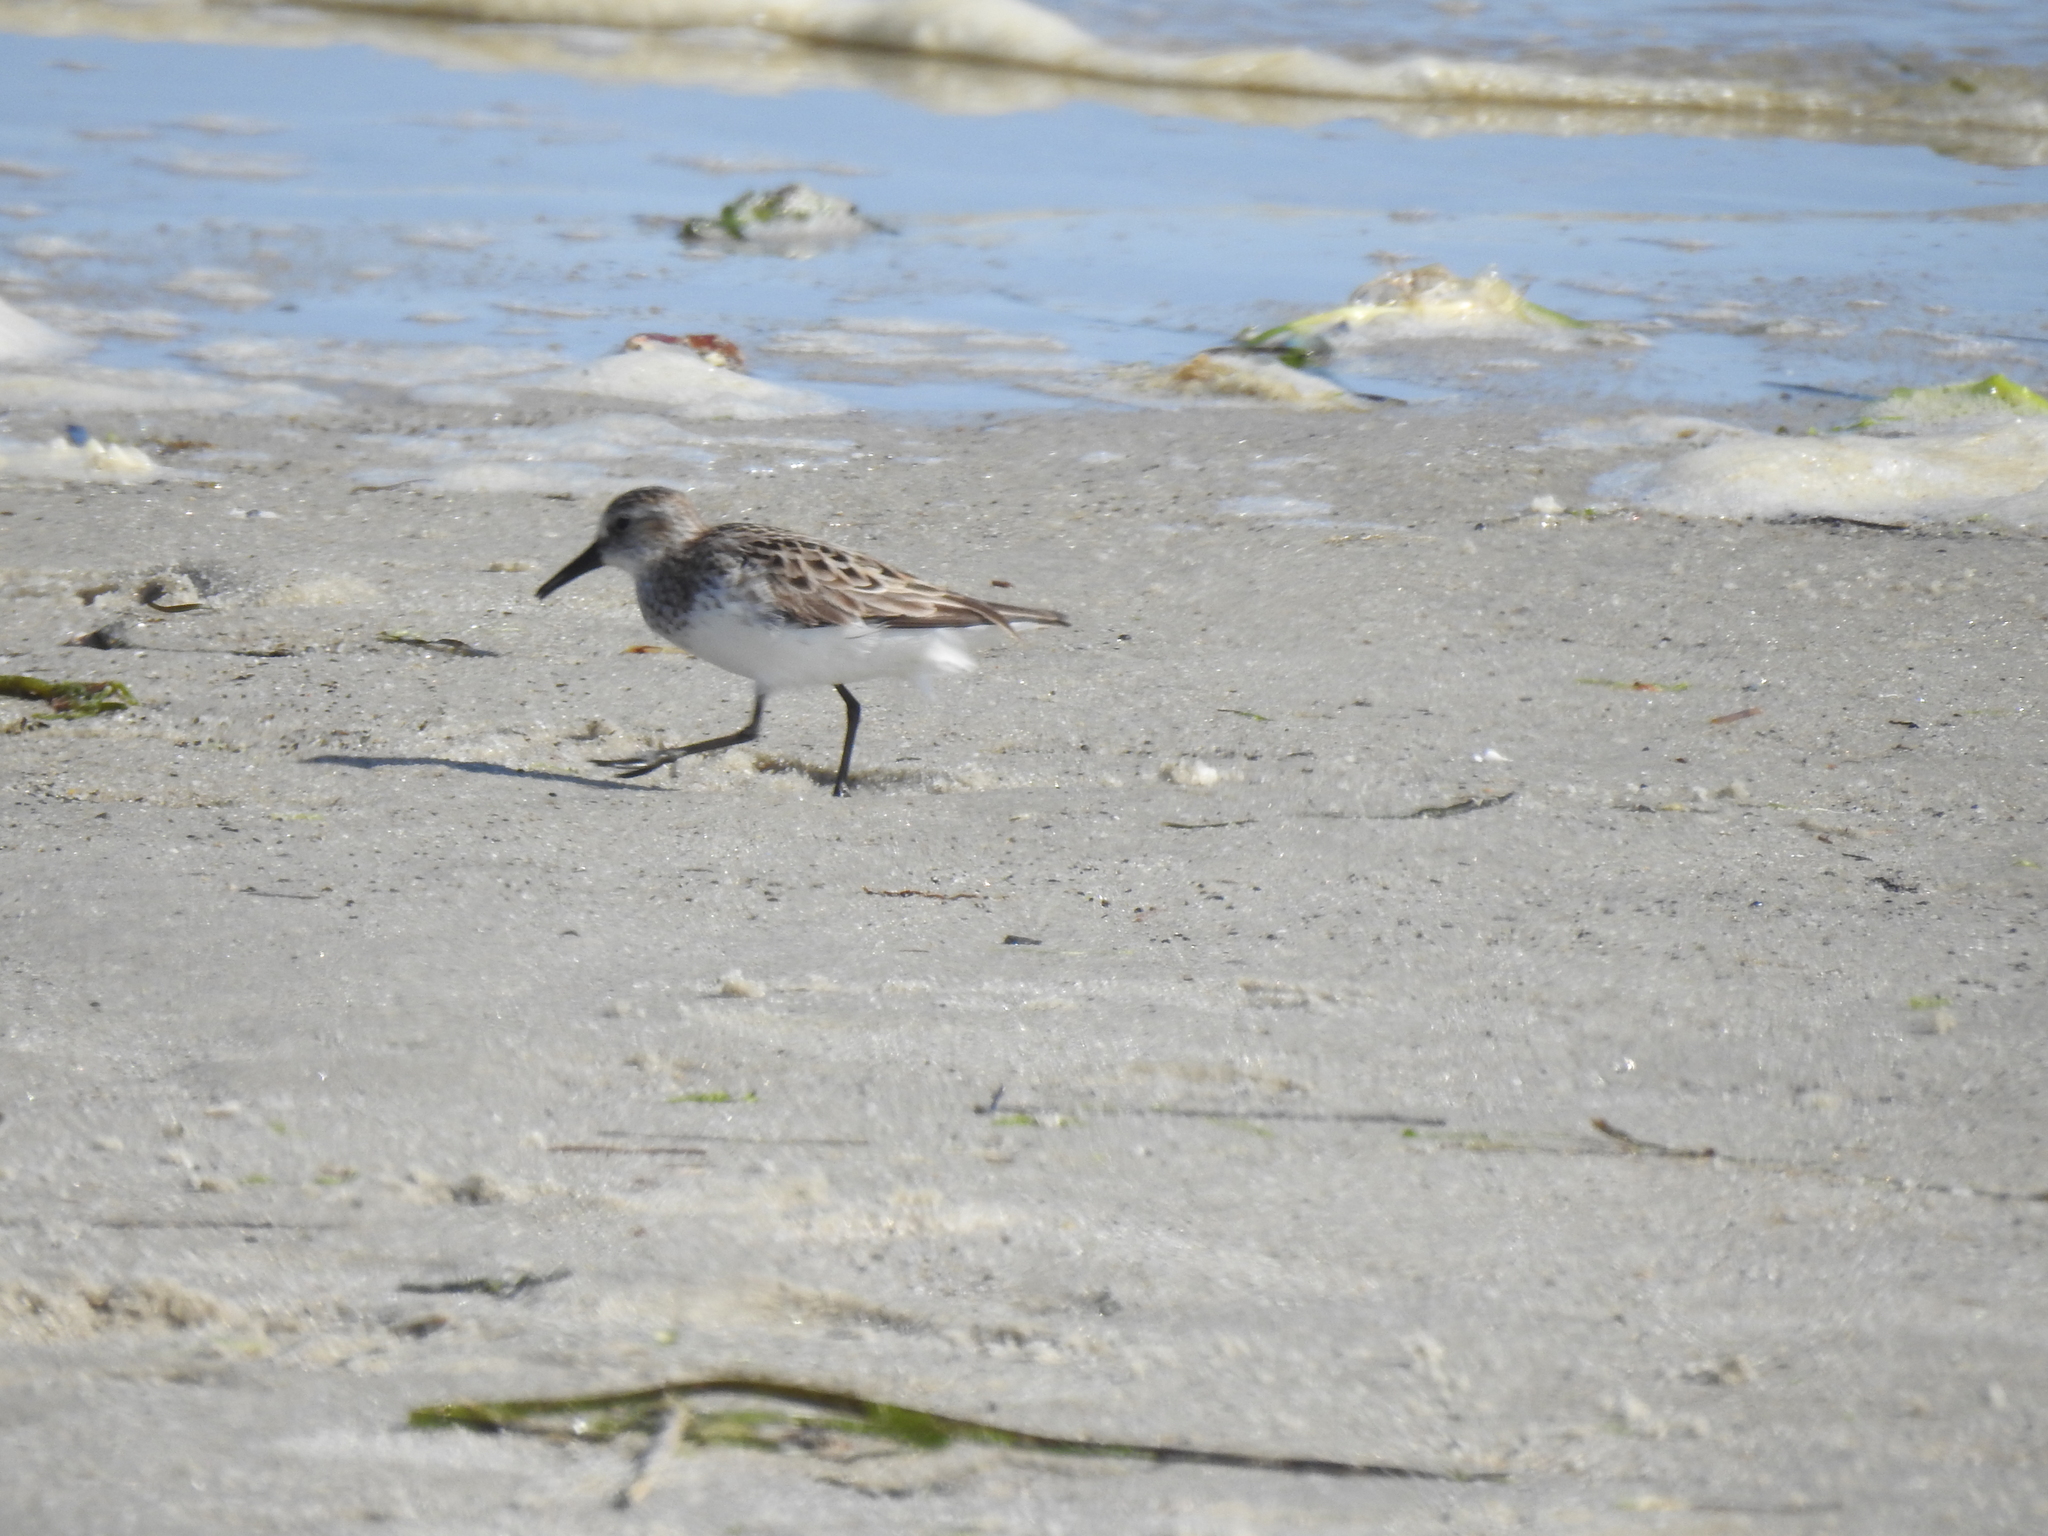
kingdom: Animalia
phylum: Chordata
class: Aves
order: Charadriiformes
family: Scolopacidae
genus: Calidris
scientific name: Calidris pusilla
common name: Semipalmated sandpiper
